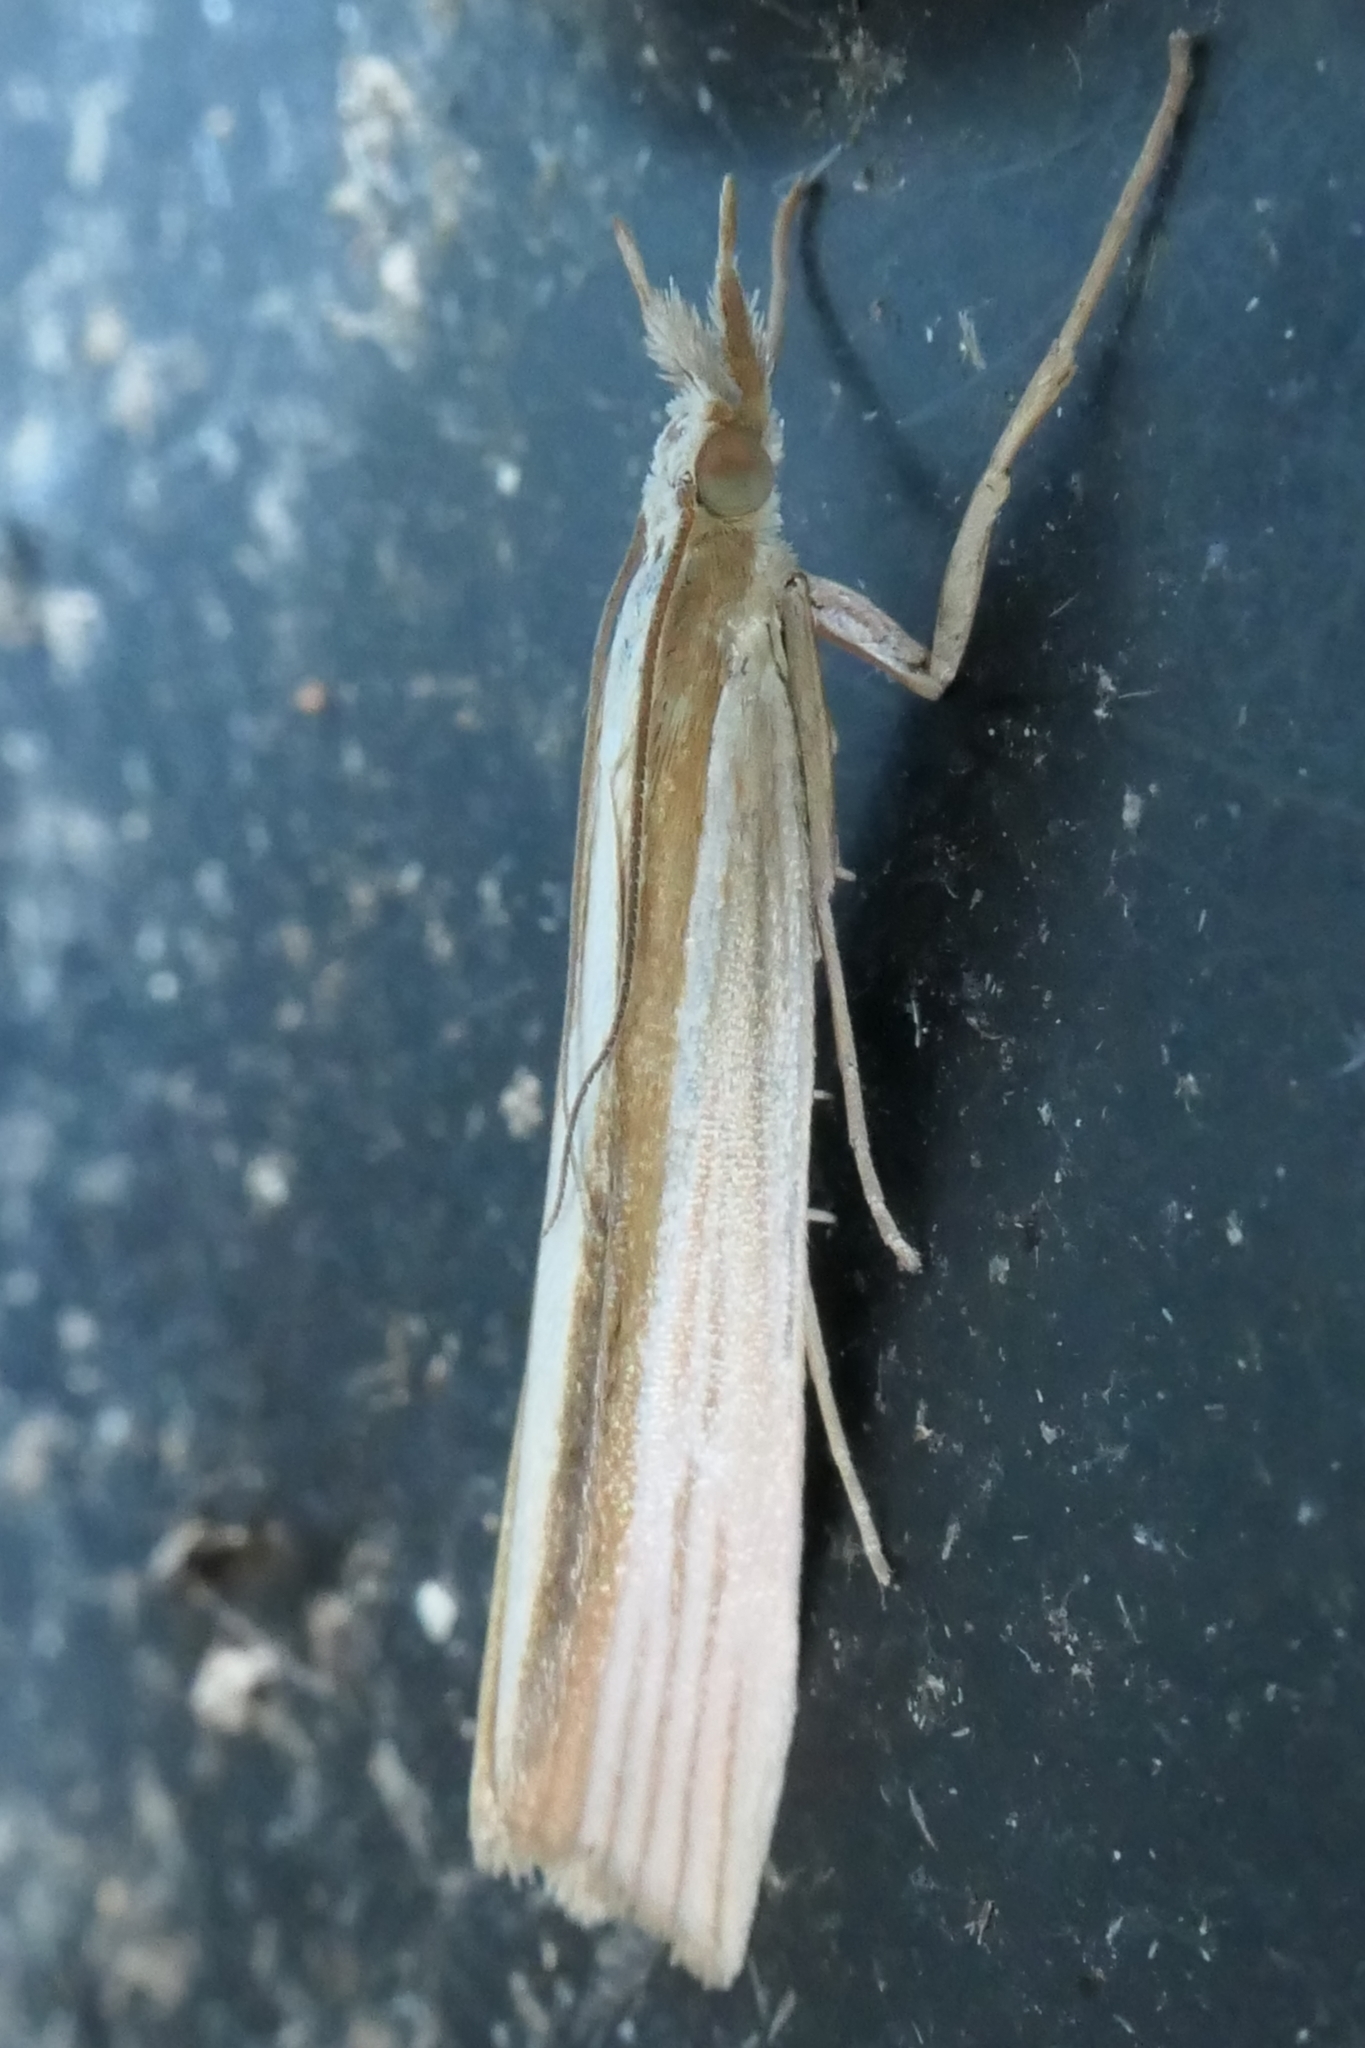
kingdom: Animalia
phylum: Arthropoda
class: Insecta
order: Lepidoptera
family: Crambidae
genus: Orocrambus
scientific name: Orocrambus angustipennis
